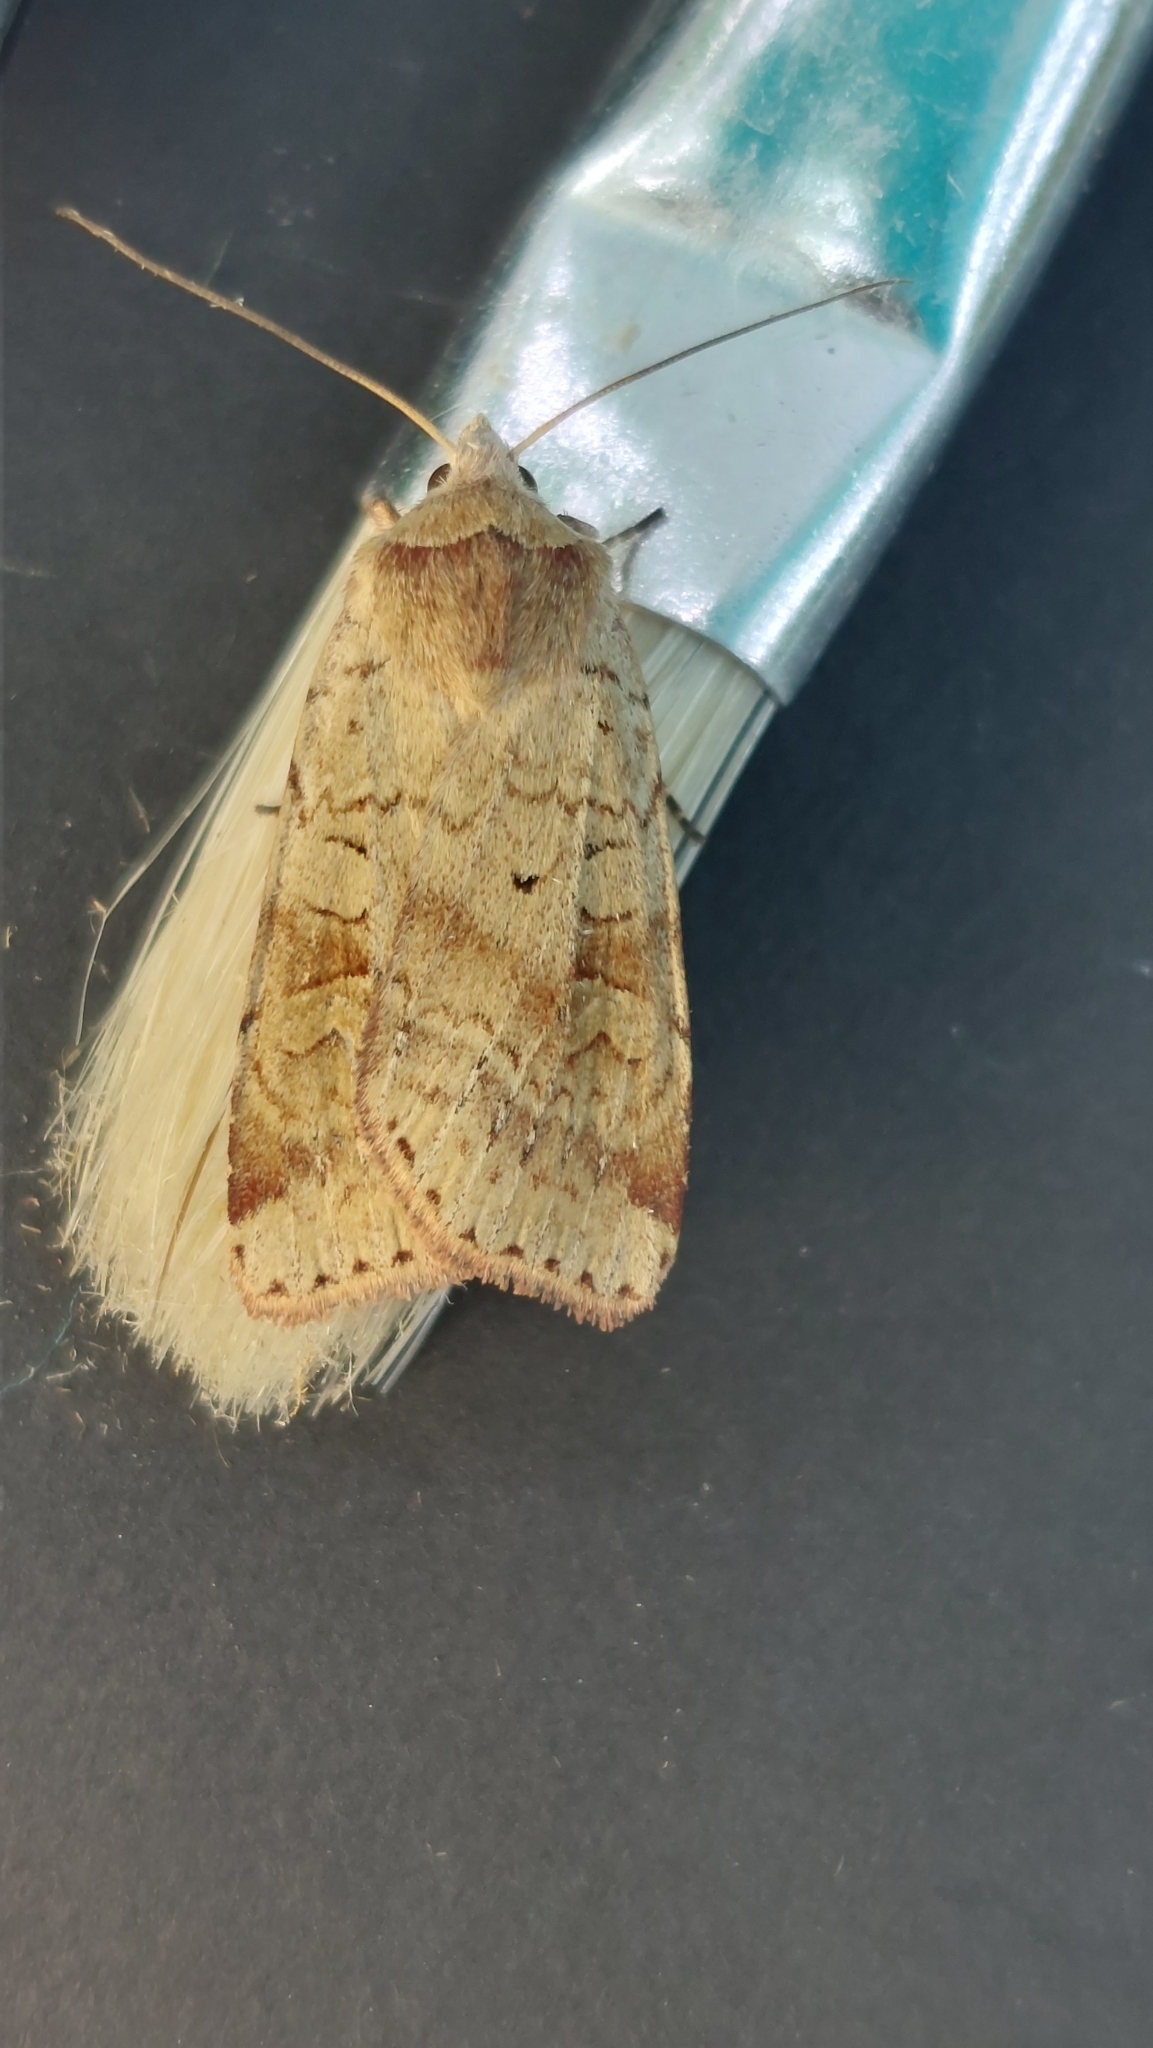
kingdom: Animalia
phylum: Arthropoda
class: Insecta
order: Lepidoptera
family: Noctuidae
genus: Diarsia
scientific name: Diarsia mendica
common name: Ingrailed clay
